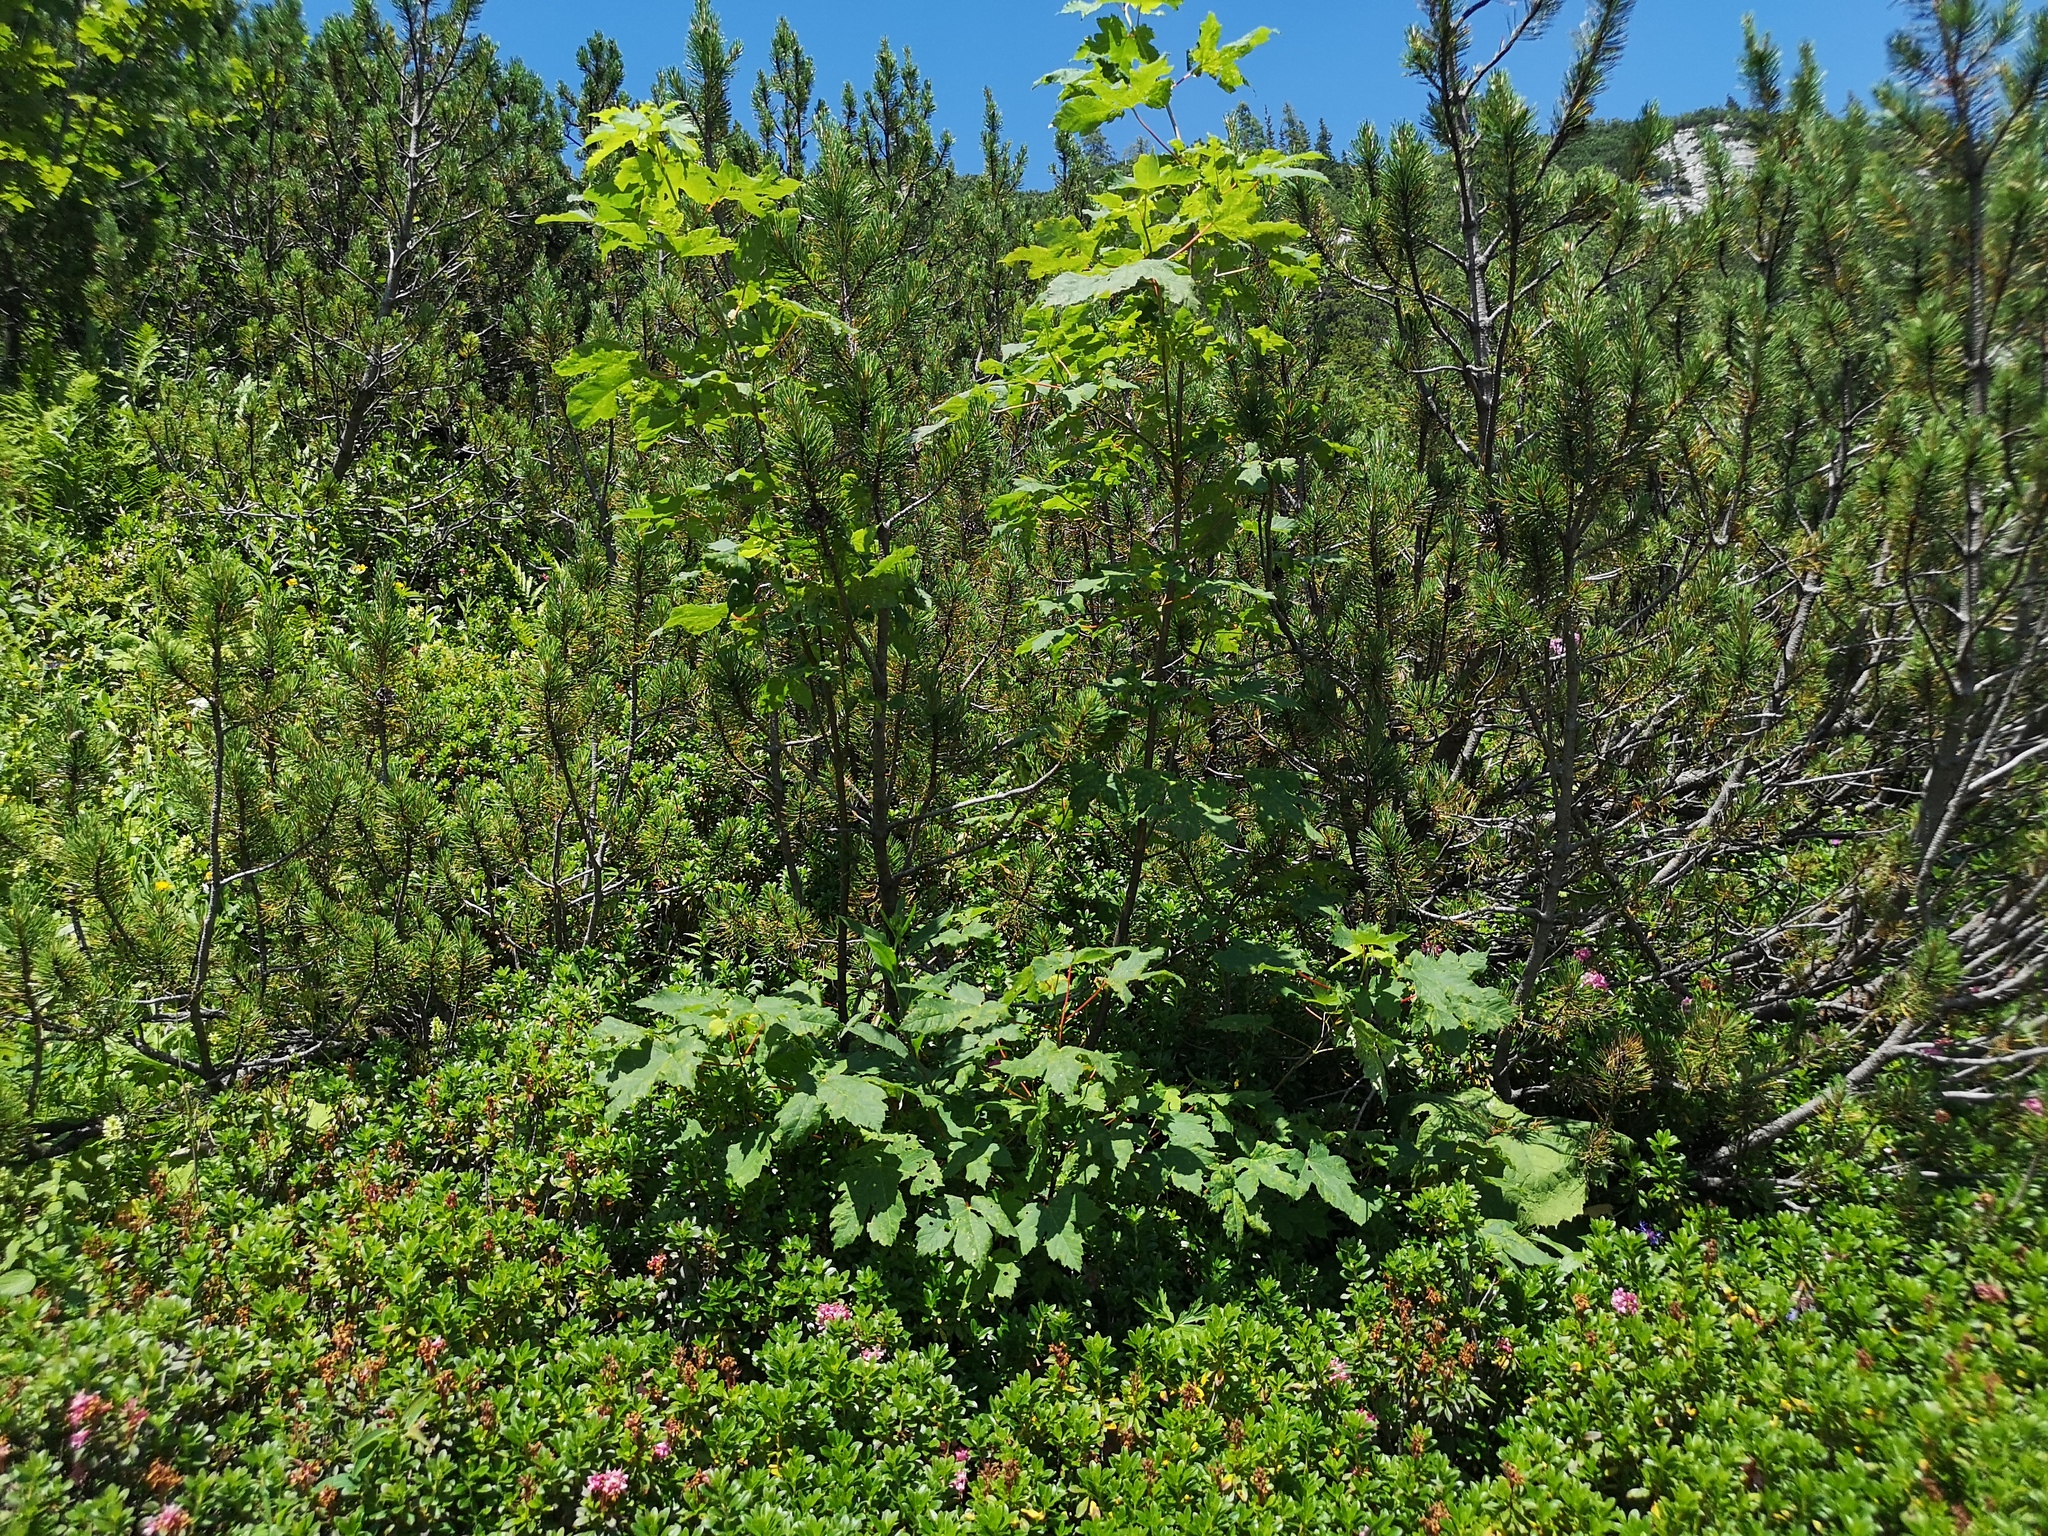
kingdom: Plantae
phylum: Tracheophyta
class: Magnoliopsida
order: Sapindales
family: Sapindaceae
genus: Acer
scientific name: Acer pseudoplatanus
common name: Sycamore
